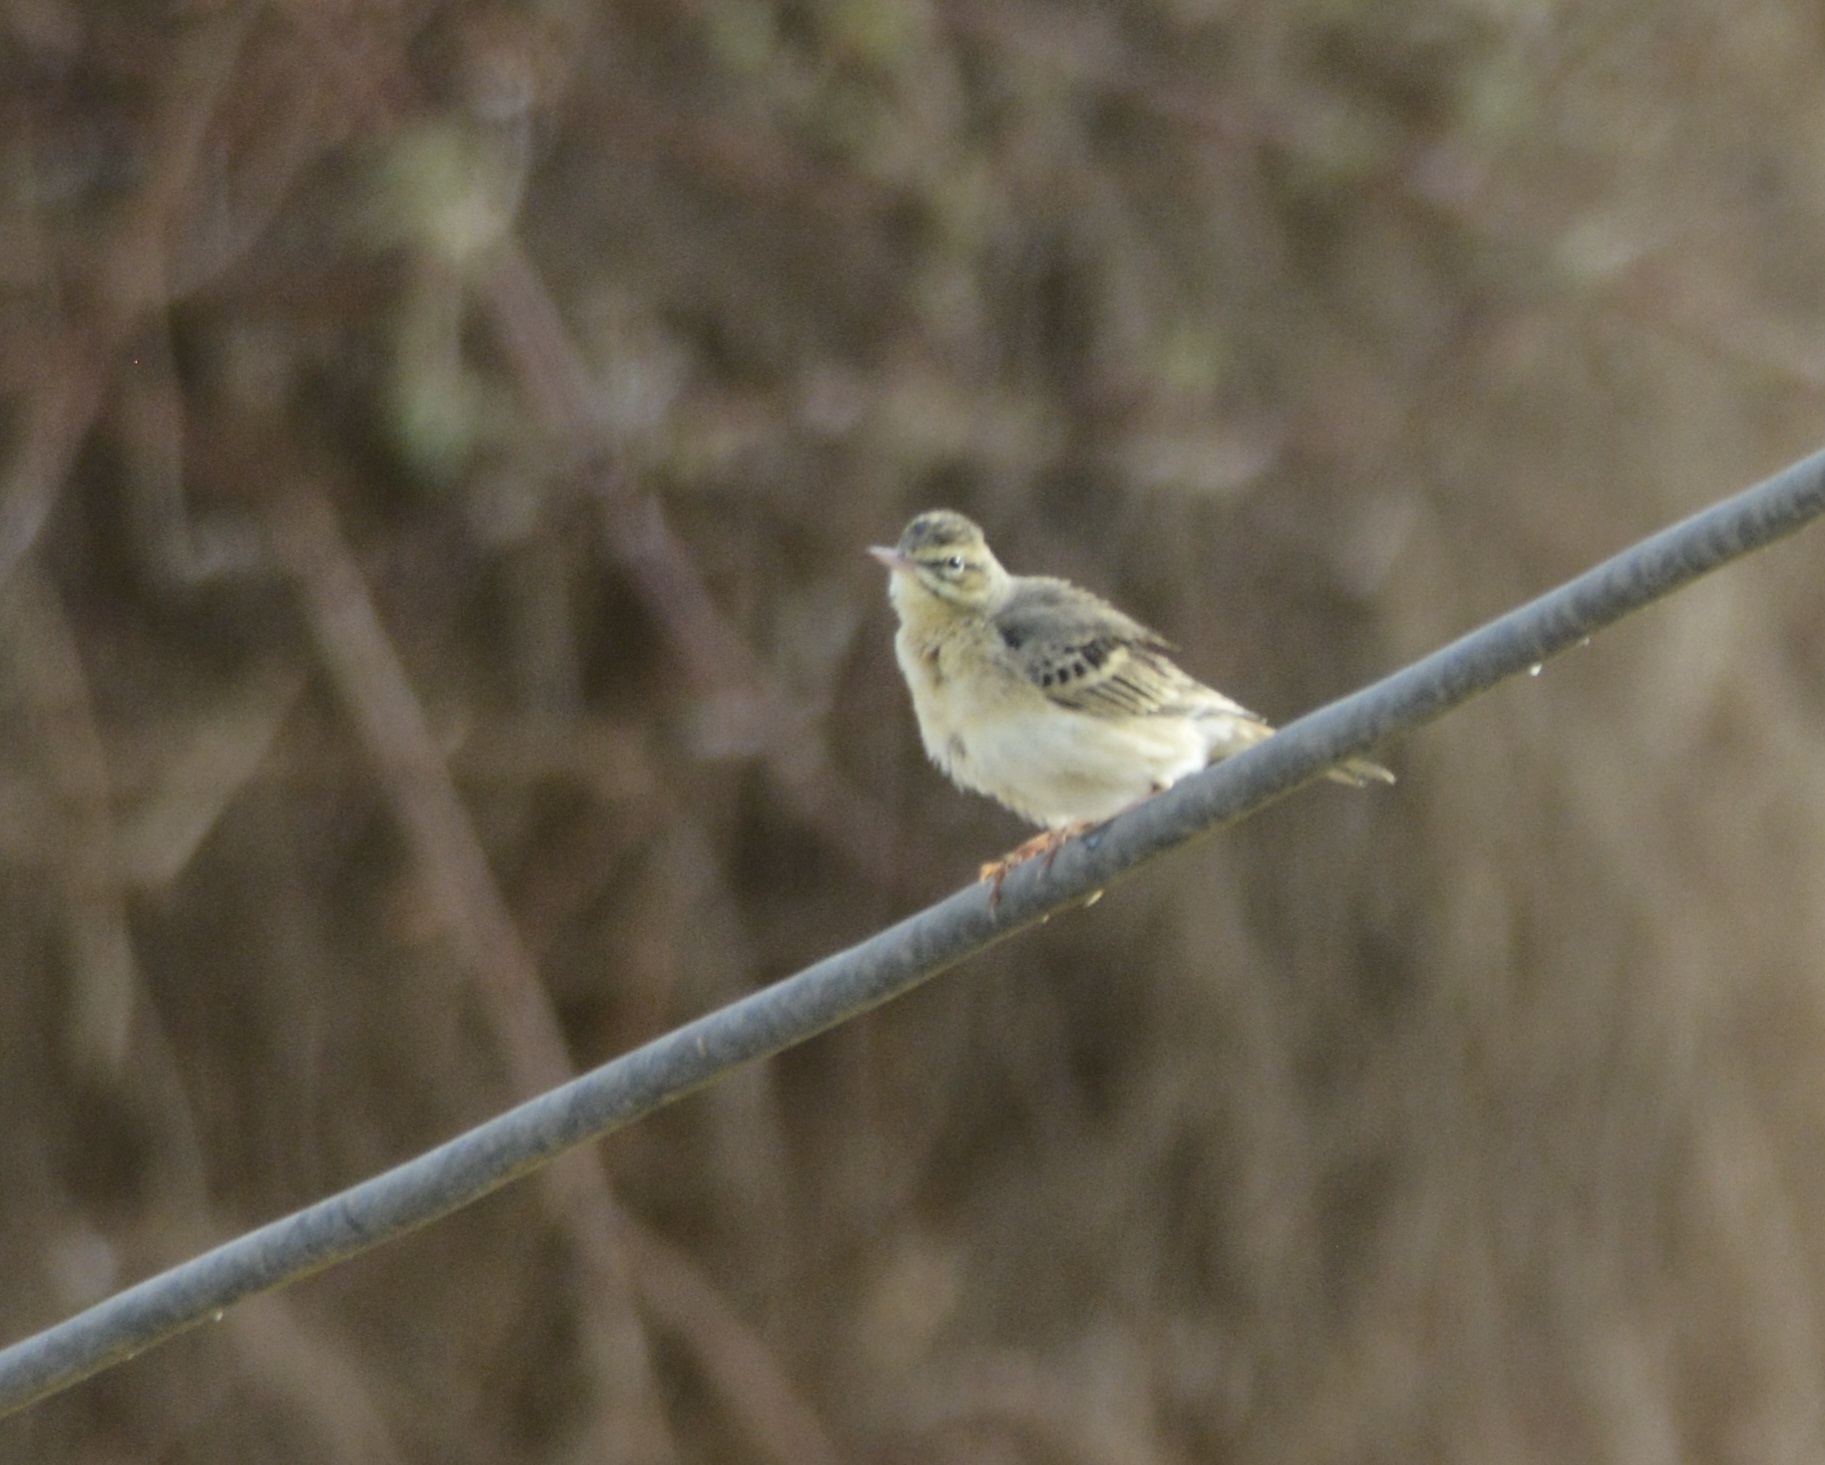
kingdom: Animalia
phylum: Chordata
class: Aves
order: Passeriformes
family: Motacillidae
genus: Anthus
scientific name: Anthus campestris
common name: Tawny pipit
